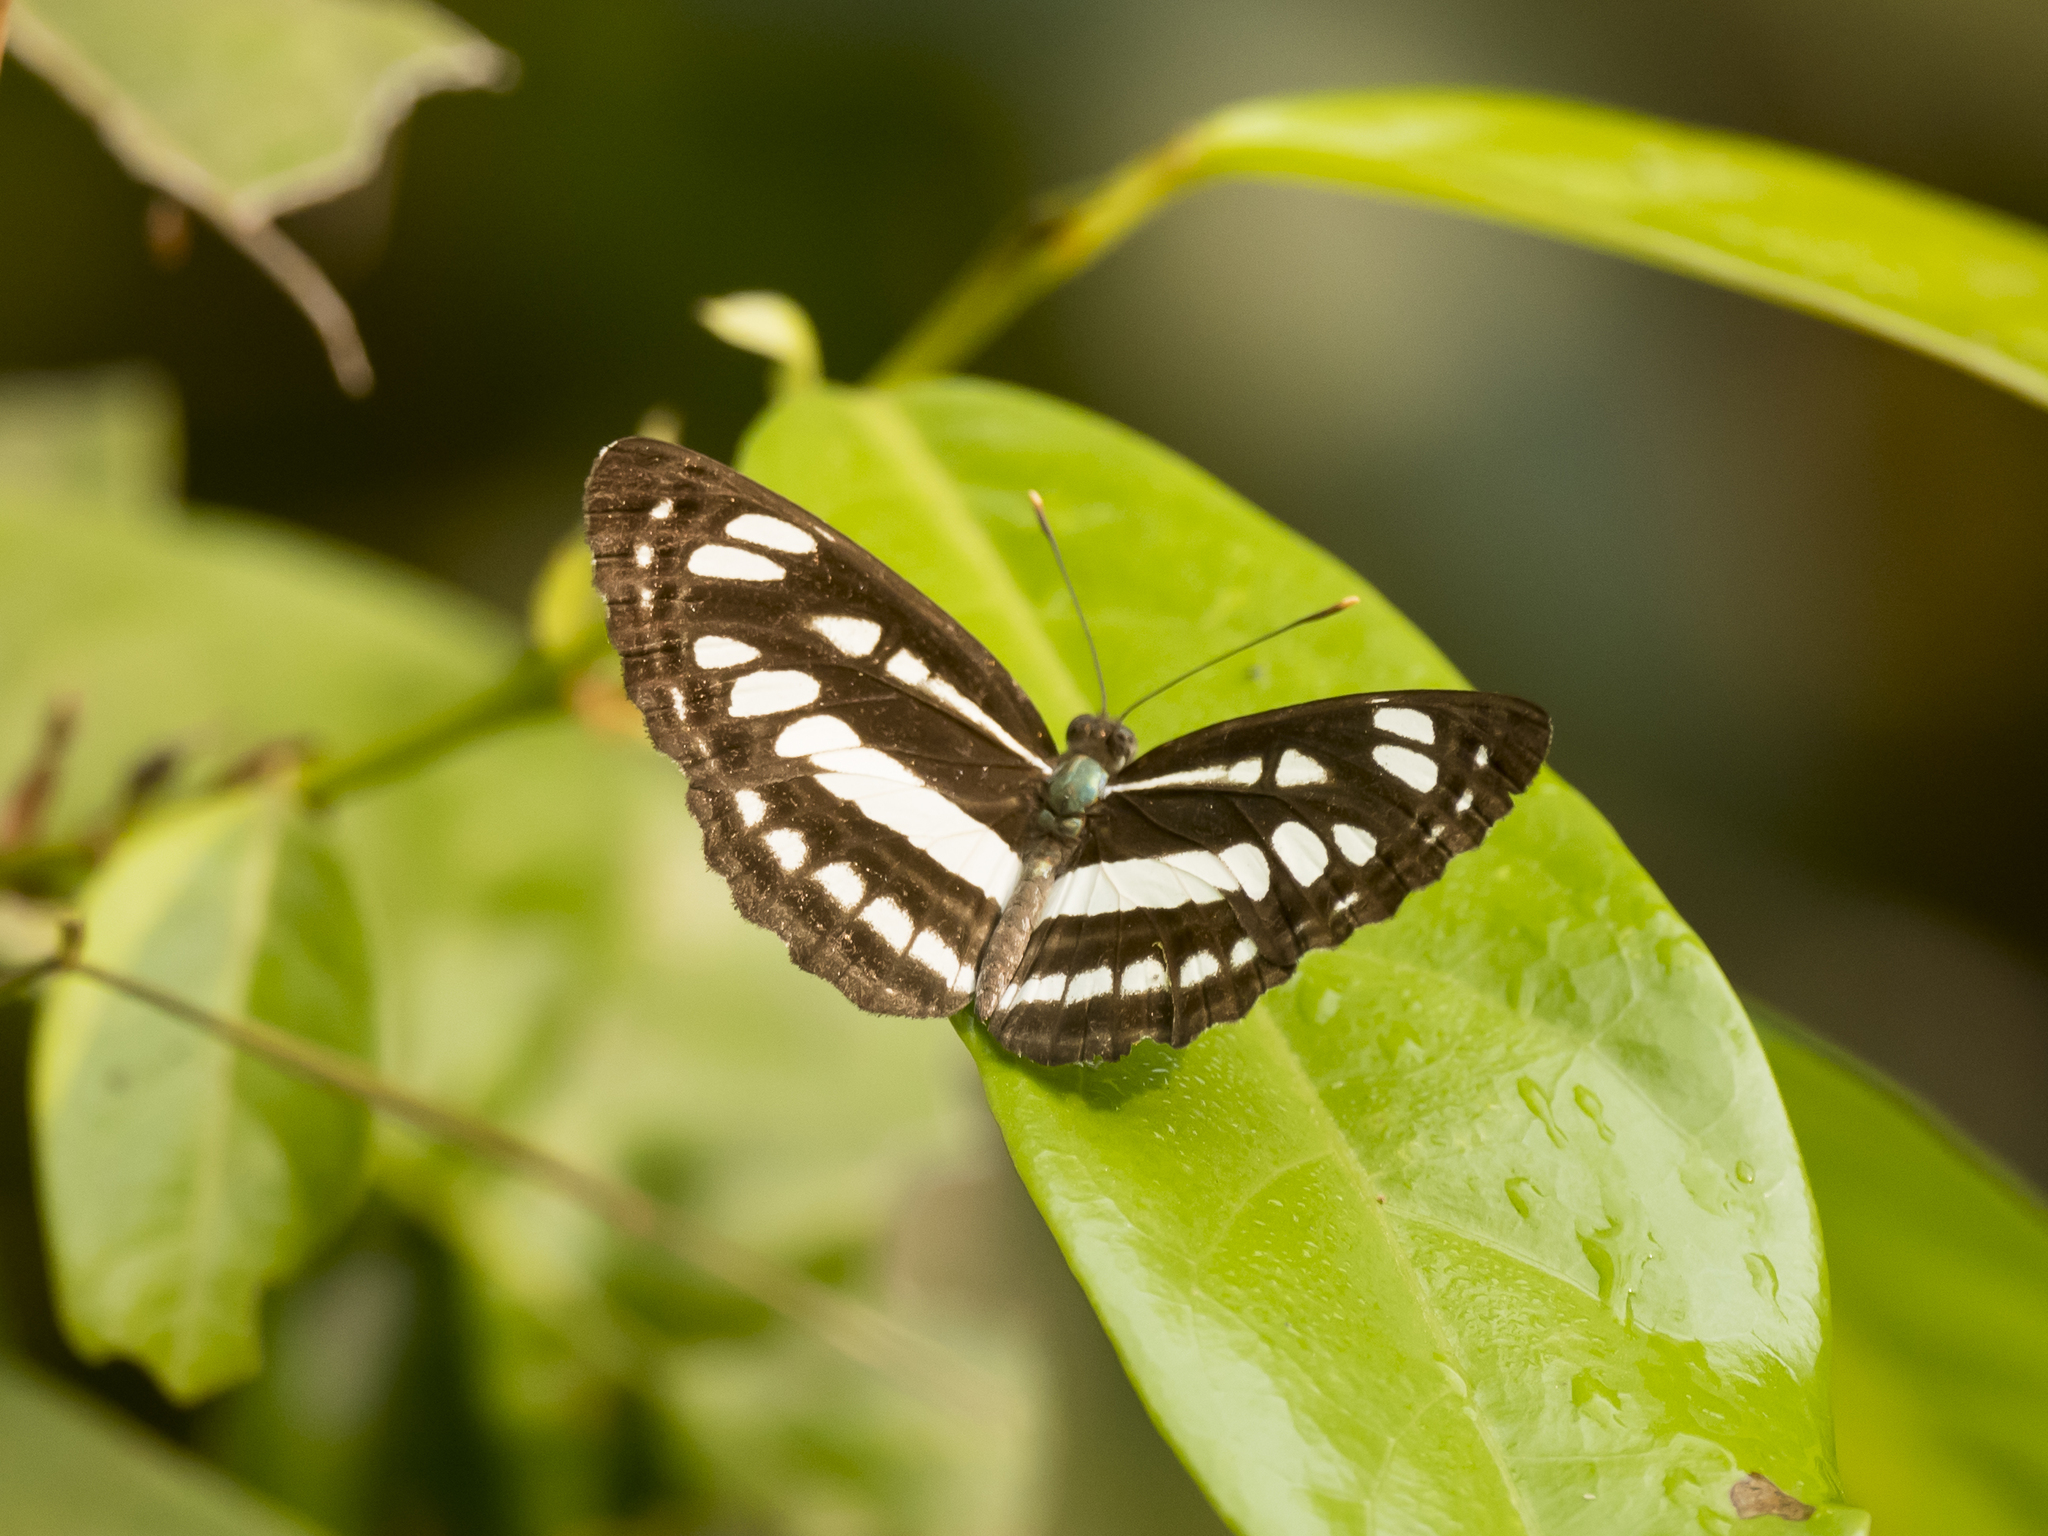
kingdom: Animalia
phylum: Arthropoda
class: Insecta
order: Lepidoptera
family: Nymphalidae
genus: Neptis
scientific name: Neptis hylas
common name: Common sailer
